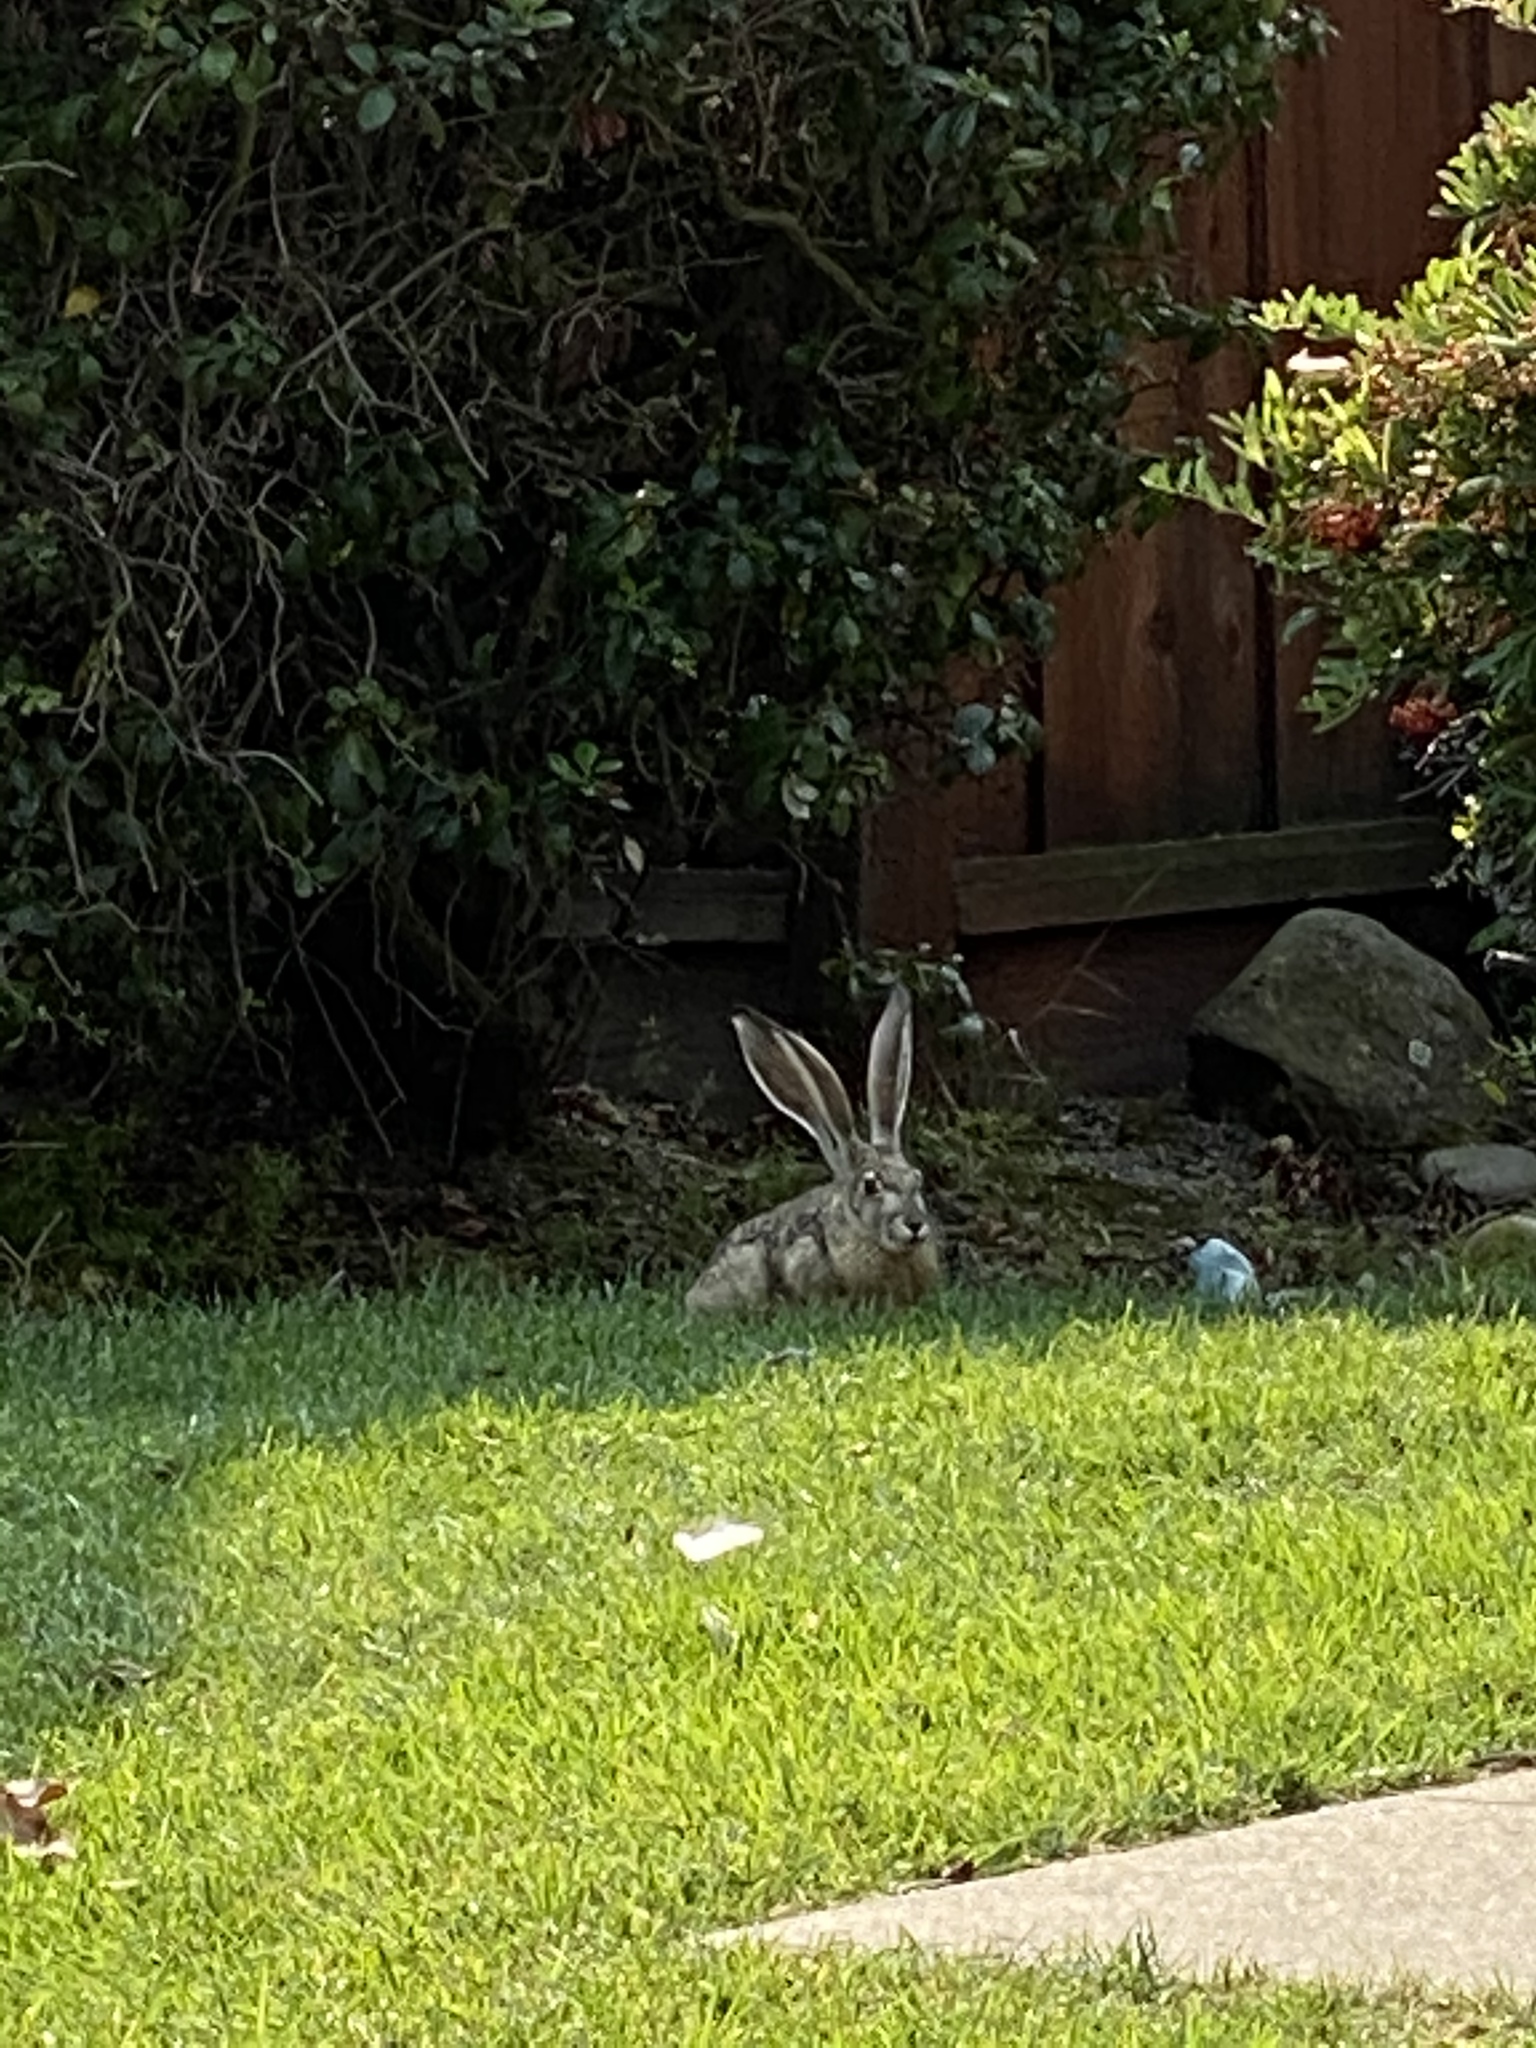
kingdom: Animalia
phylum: Chordata
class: Mammalia
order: Lagomorpha
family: Leporidae
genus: Lepus
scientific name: Lepus californicus
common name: Black-tailed jackrabbit
